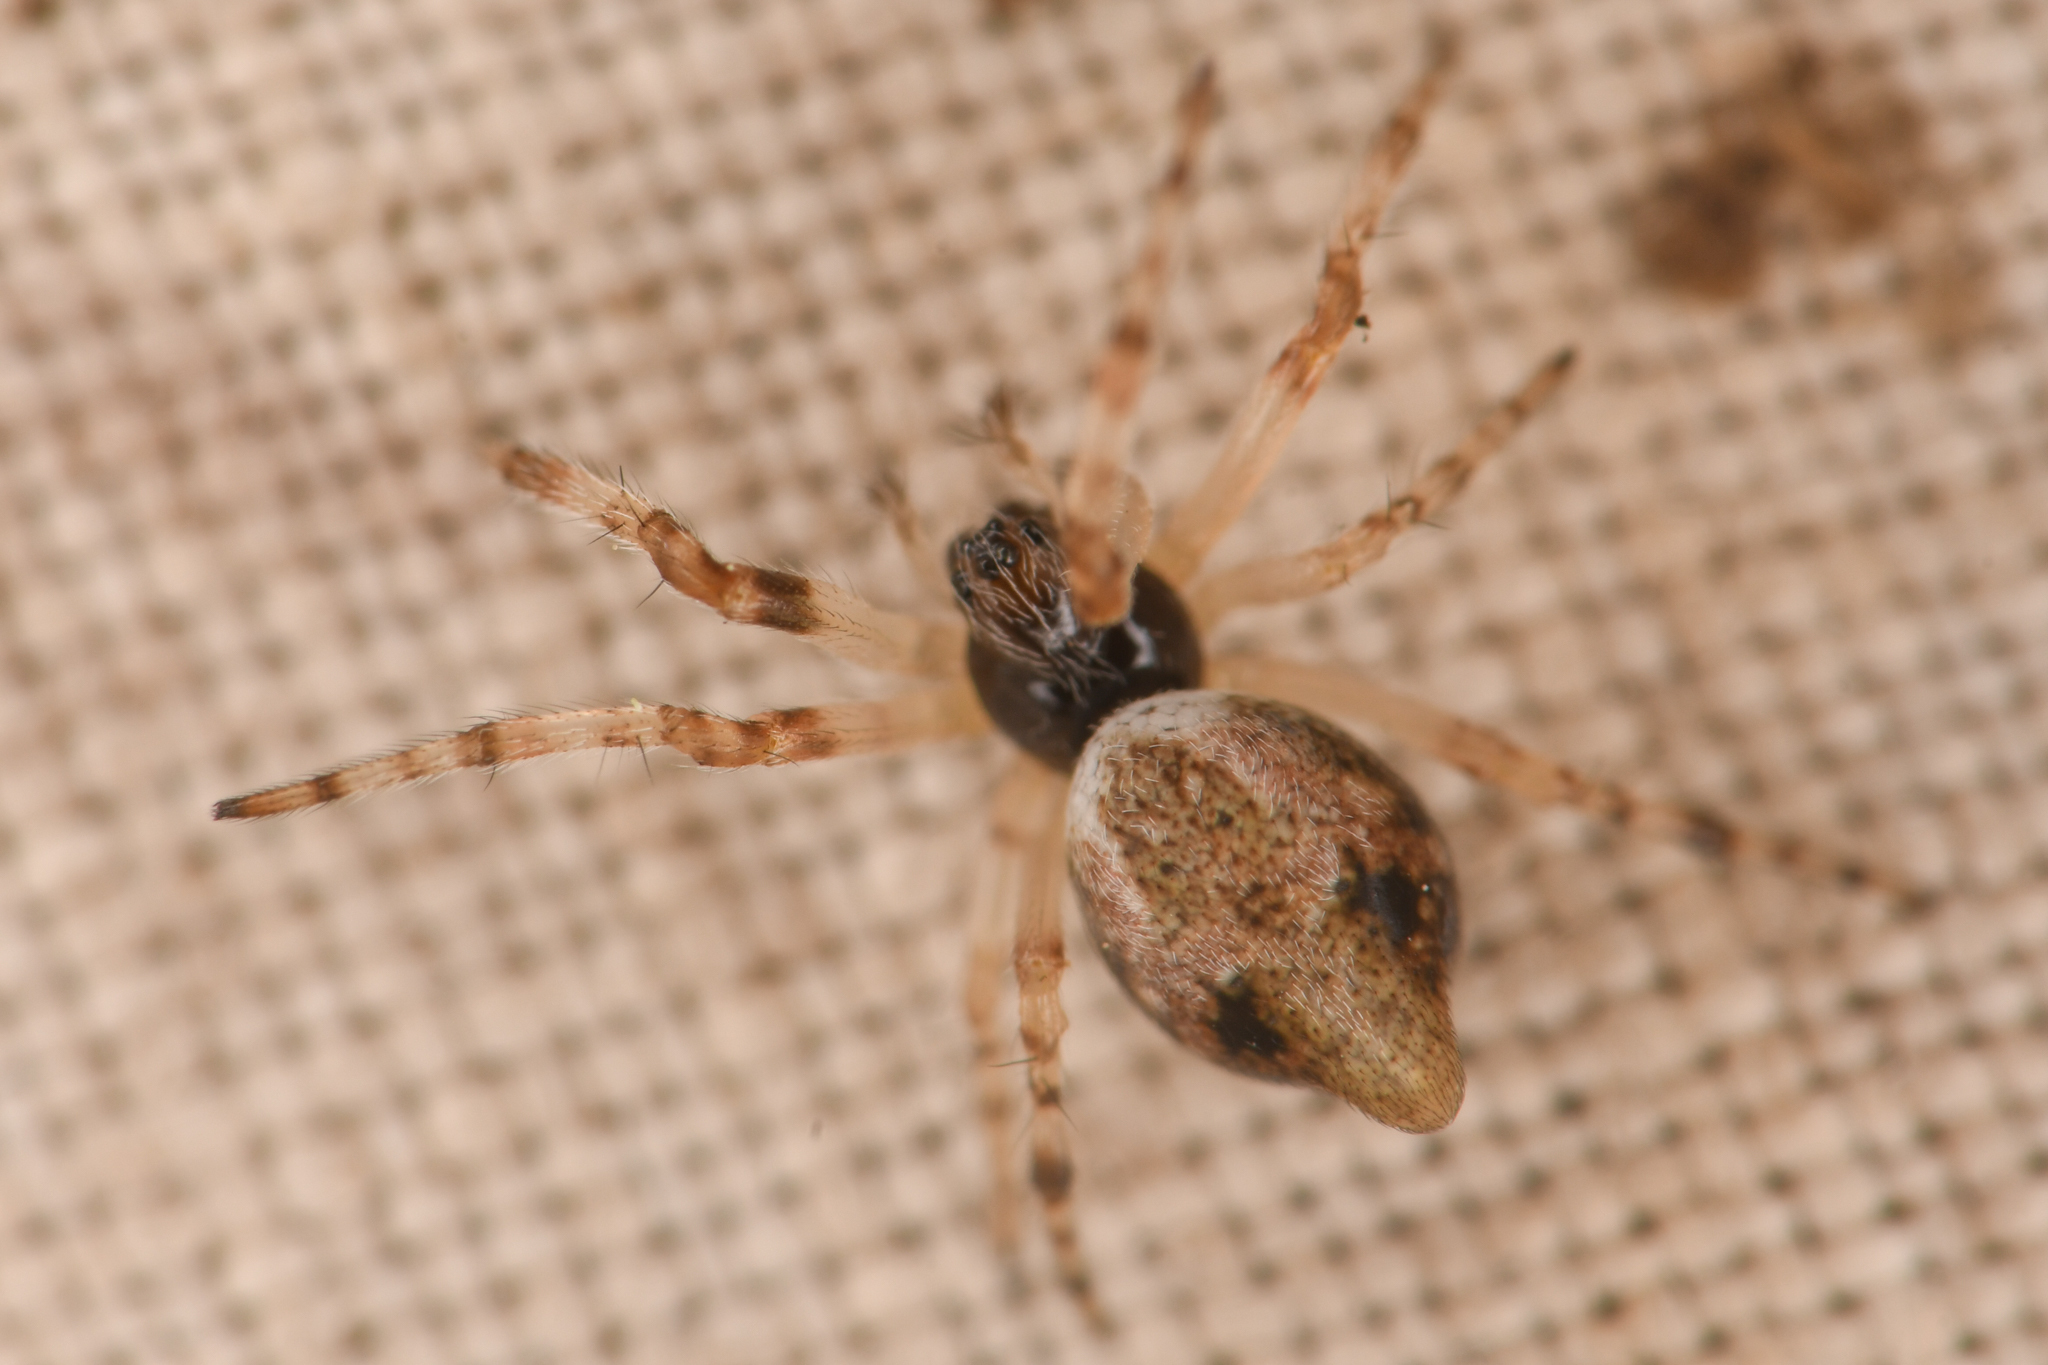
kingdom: Animalia
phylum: Arthropoda
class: Arachnida
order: Araneae
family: Araneidae
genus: Cyclosa
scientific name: Cyclosa conica
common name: Conical trashline orbweaver
